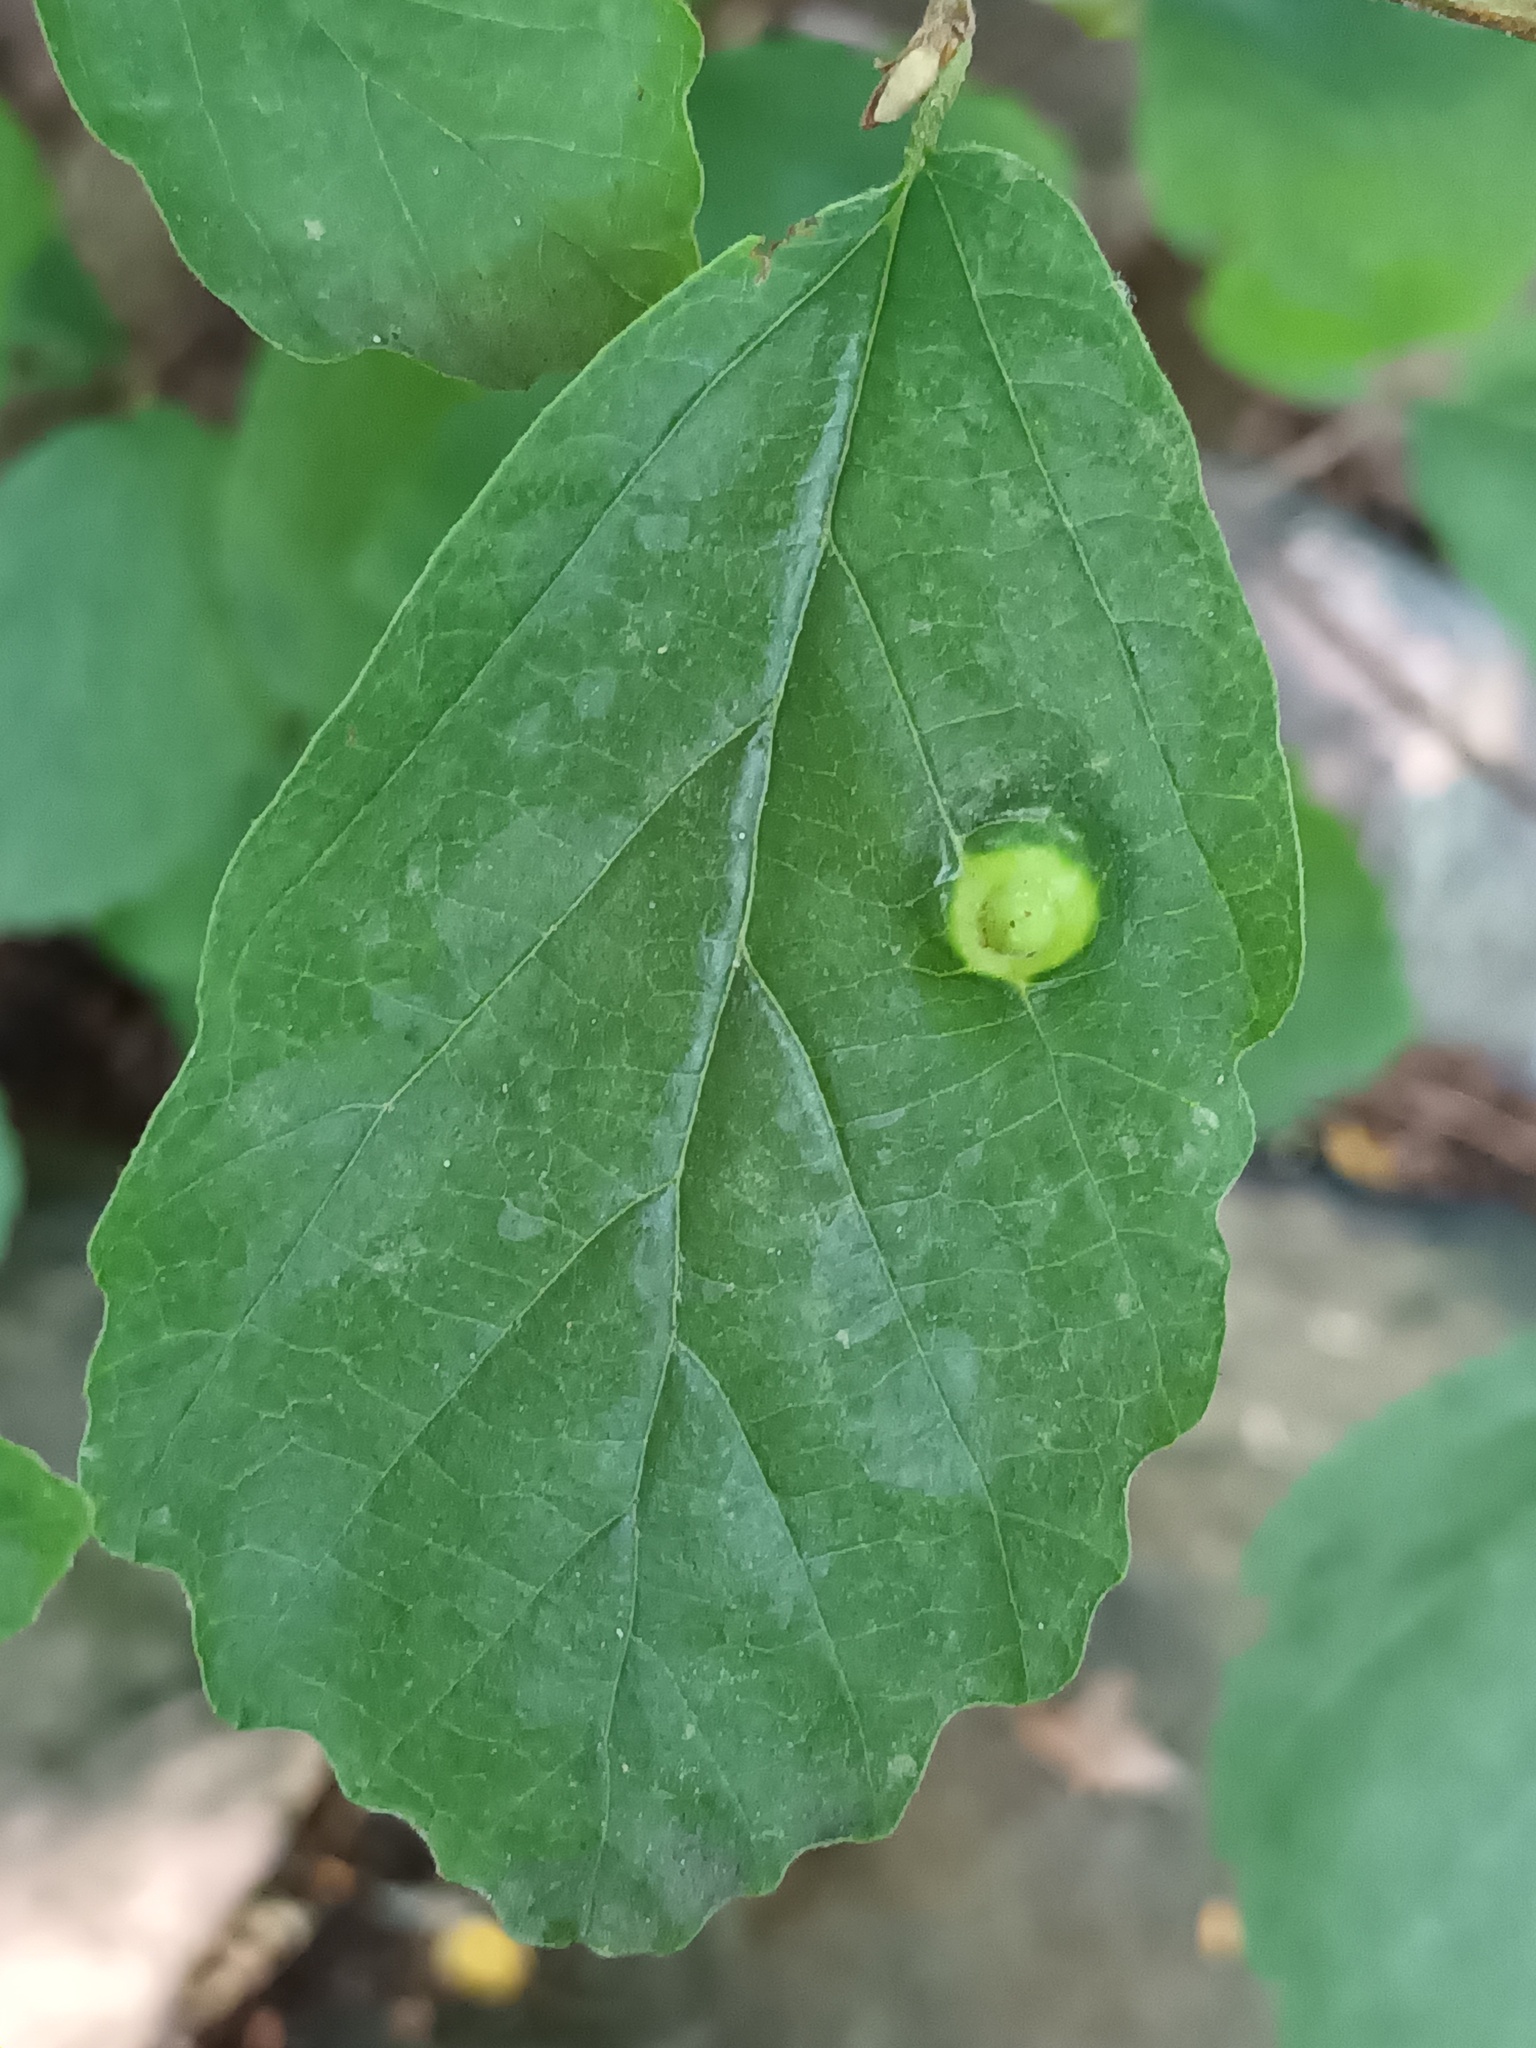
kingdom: Animalia
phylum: Arthropoda
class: Insecta
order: Hemiptera
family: Aphididae
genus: Hormaphis
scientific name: Hormaphis hamamelidis
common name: Witch-hazel cone gall aphid
